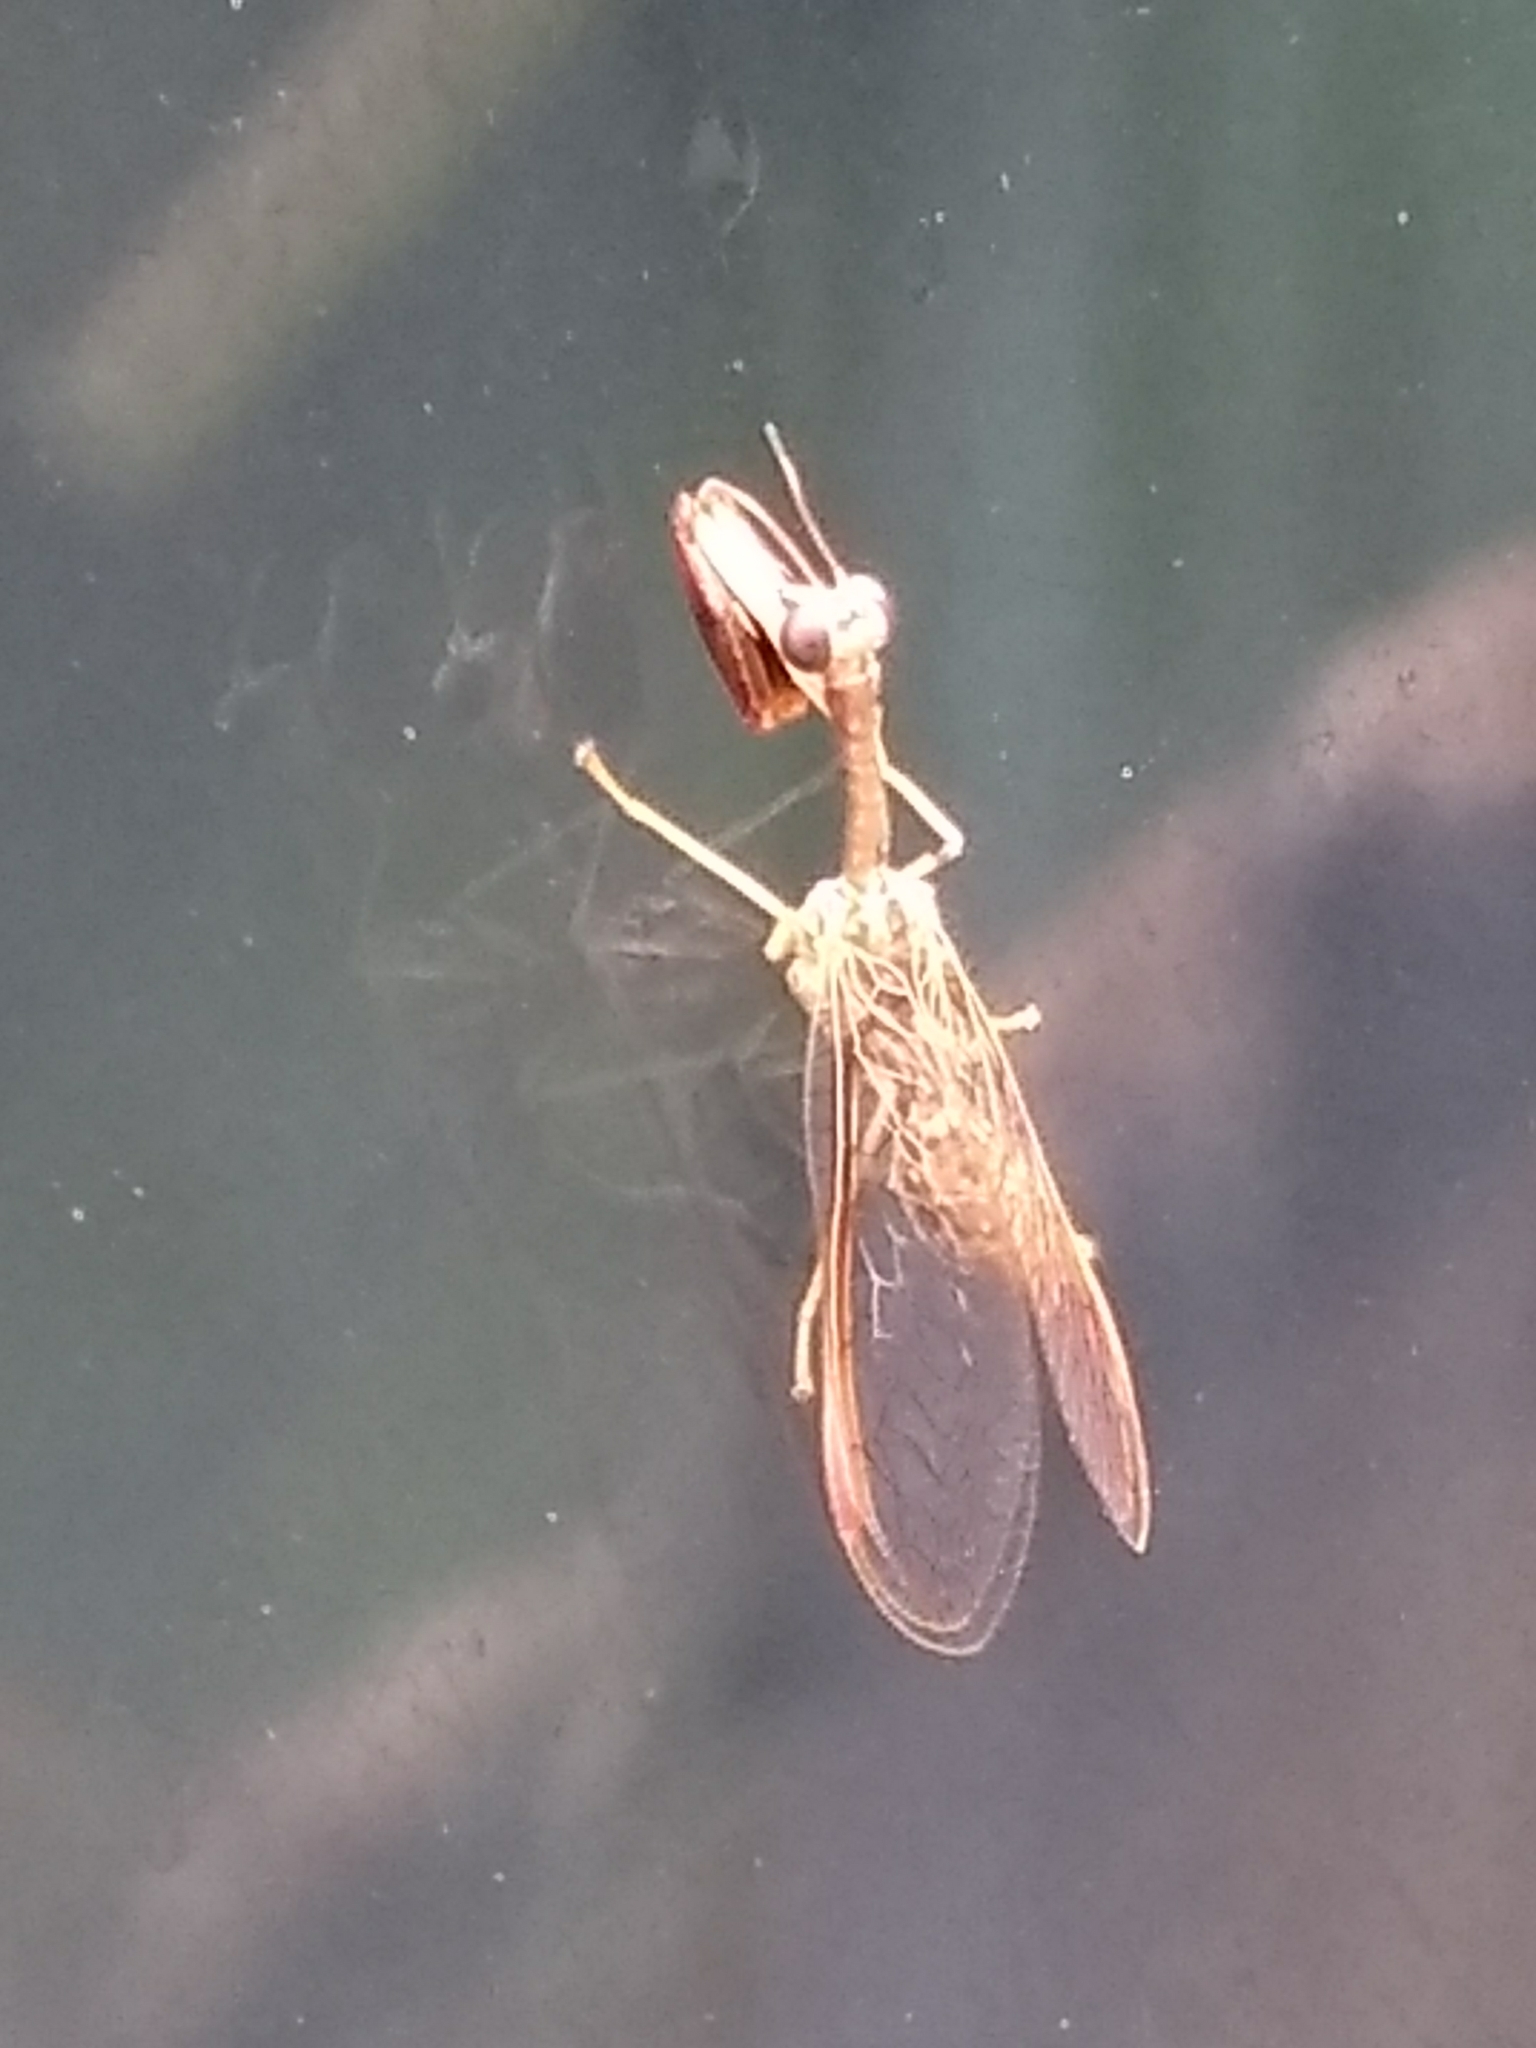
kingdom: Animalia
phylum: Arthropoda
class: Insecta
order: Neuroptera
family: Mantispidae
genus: Dicromantispa
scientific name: Dicromantispa sayi
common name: Say's mantidfly
